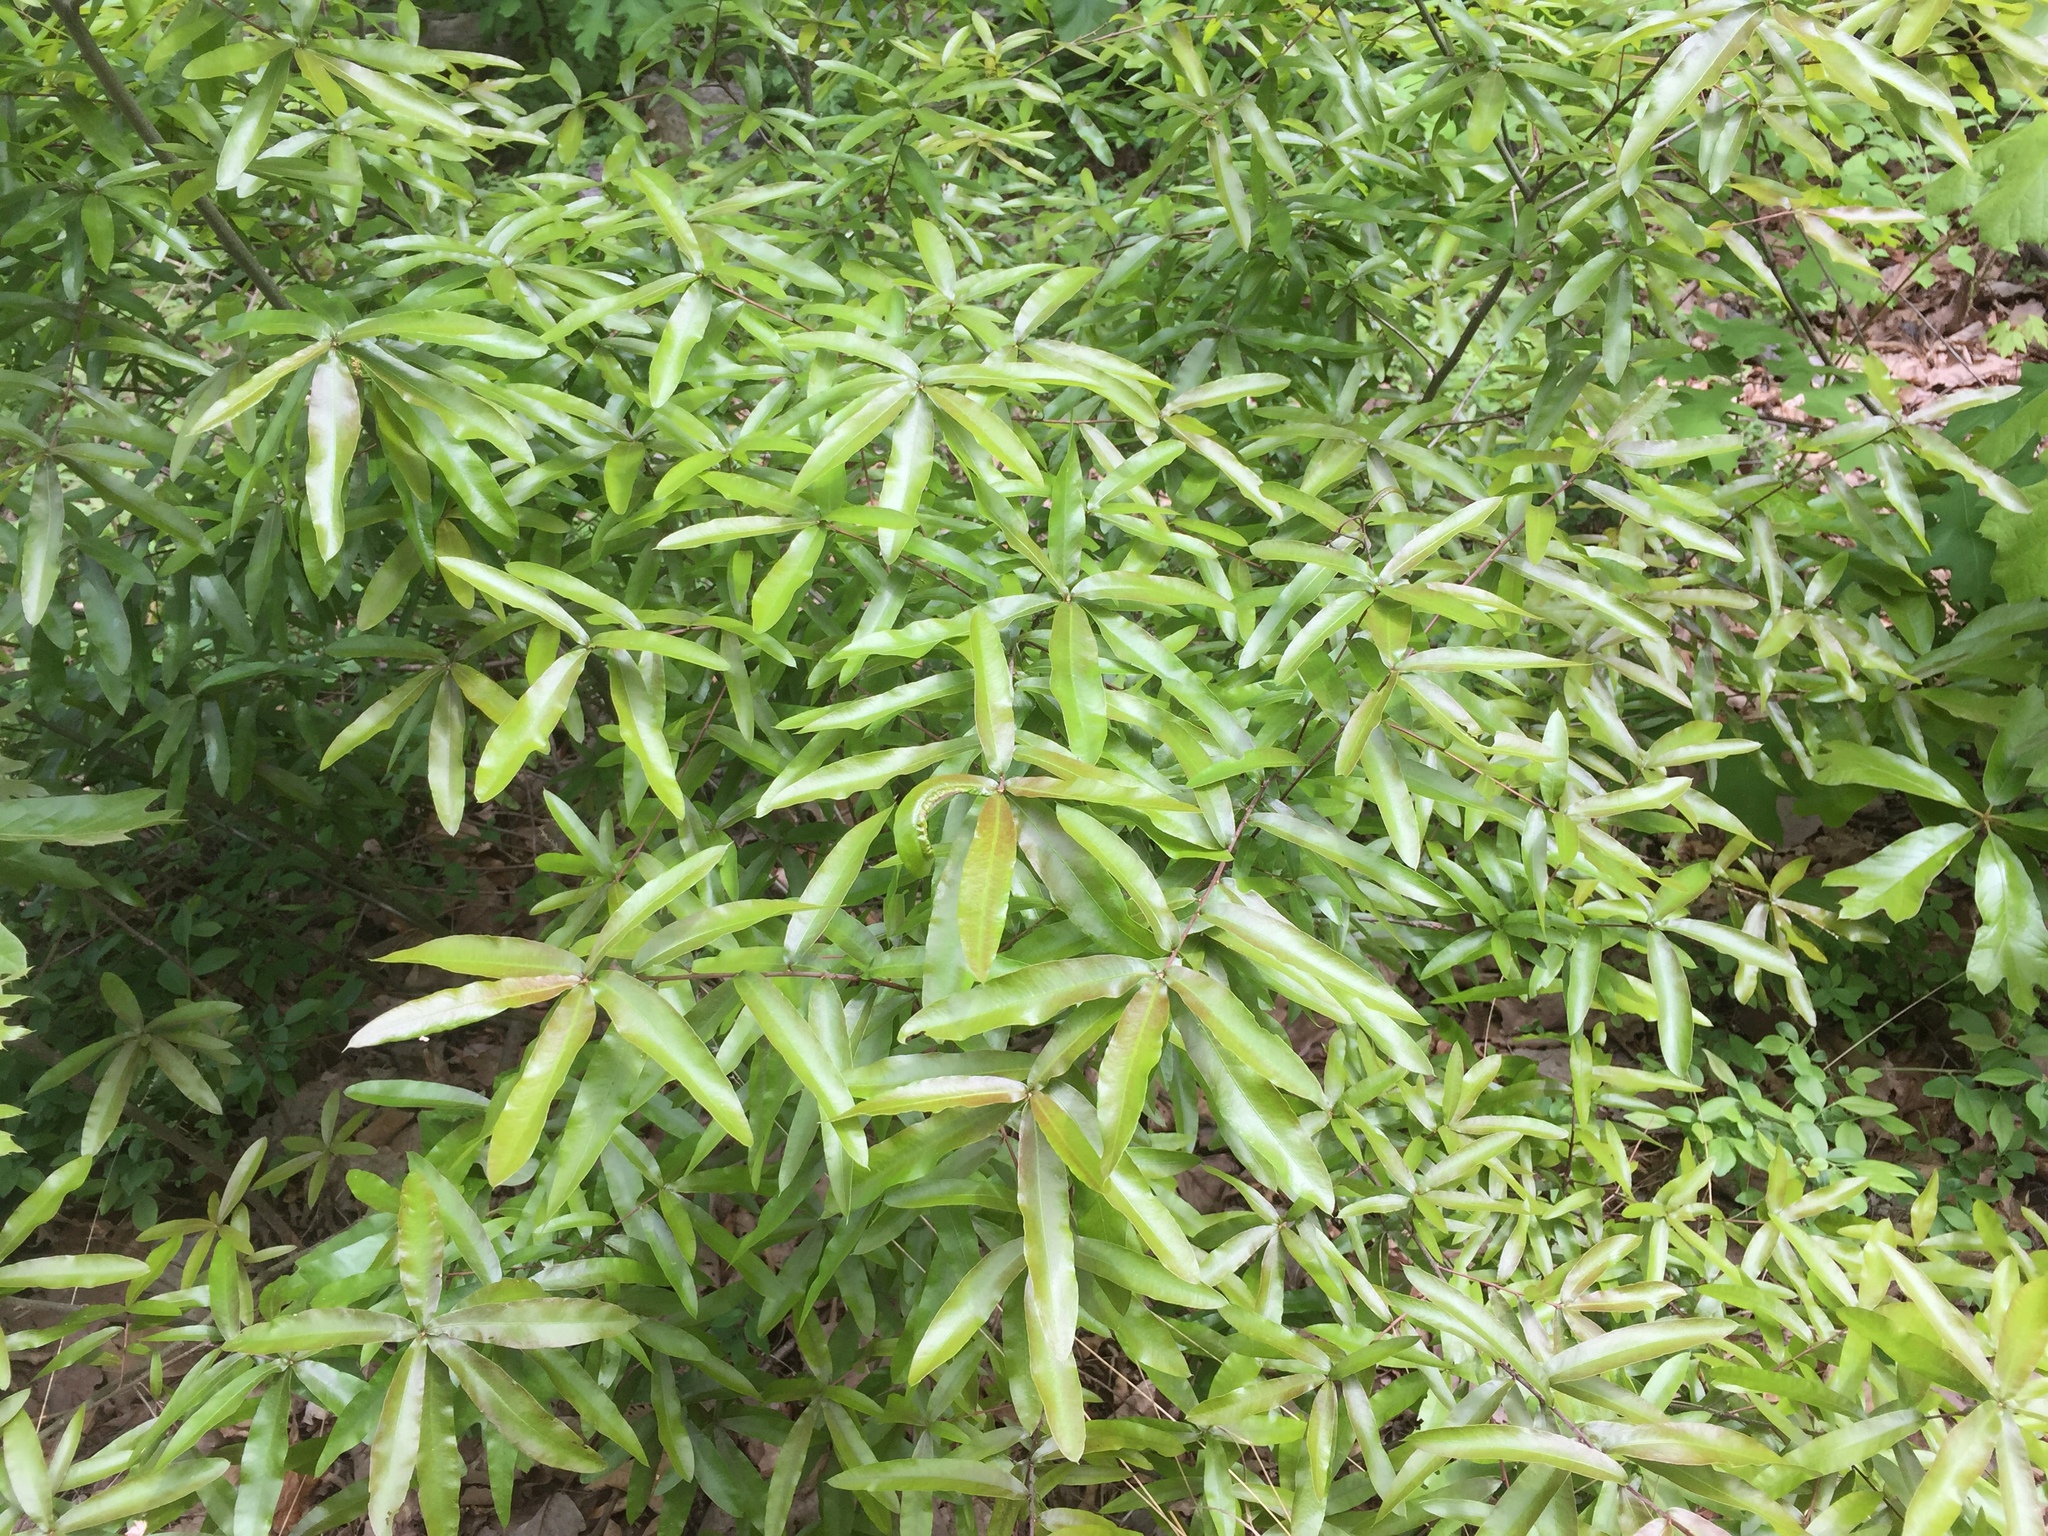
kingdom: Plantae
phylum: Tracheophyta
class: Magnoliopsida
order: Fagales
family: Fagaceae
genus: Quercus
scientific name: Quercus phellos
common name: Willow oak
